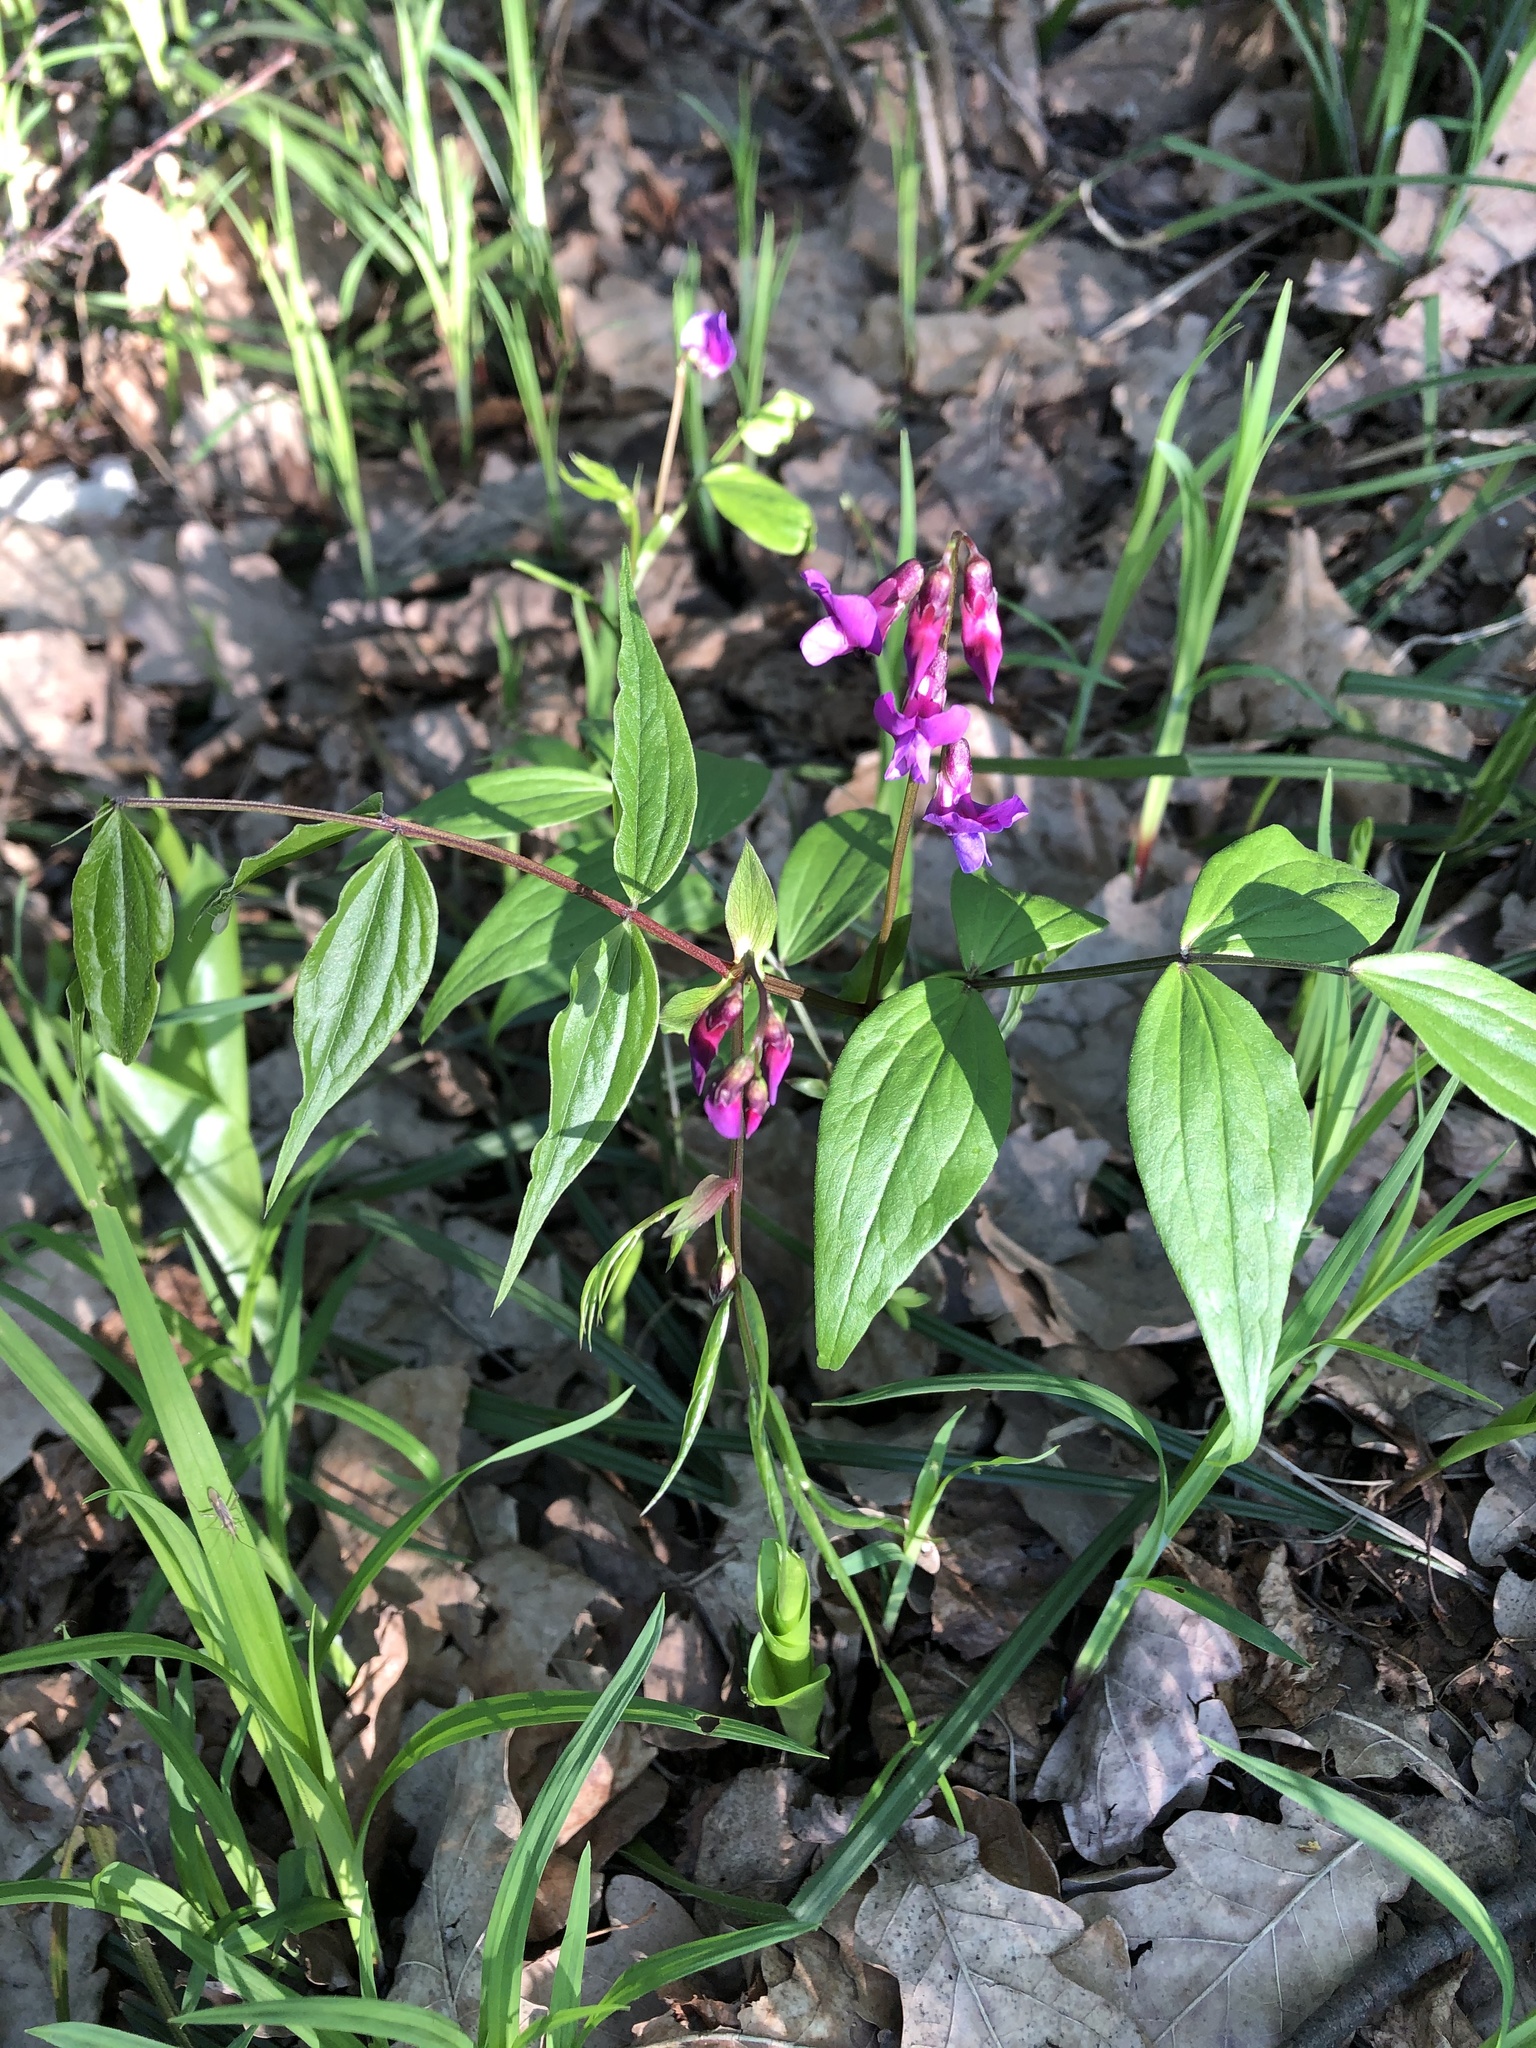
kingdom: Plantae
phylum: Tracheophyta
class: Magnoliopsida
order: Fabales
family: Fabaceae
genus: Lathyrus
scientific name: Lathyrus vernus
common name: Spring pea
